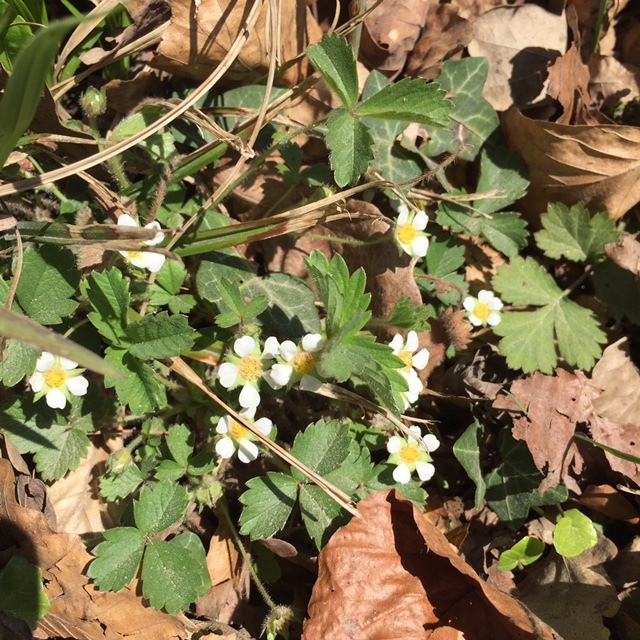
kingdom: Plantae
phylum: Tracheophyta
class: Magnoliopsida
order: Rosales
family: Rosaceae
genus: Potentilla
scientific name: Potentilla sterilis
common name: Barren strawberry
